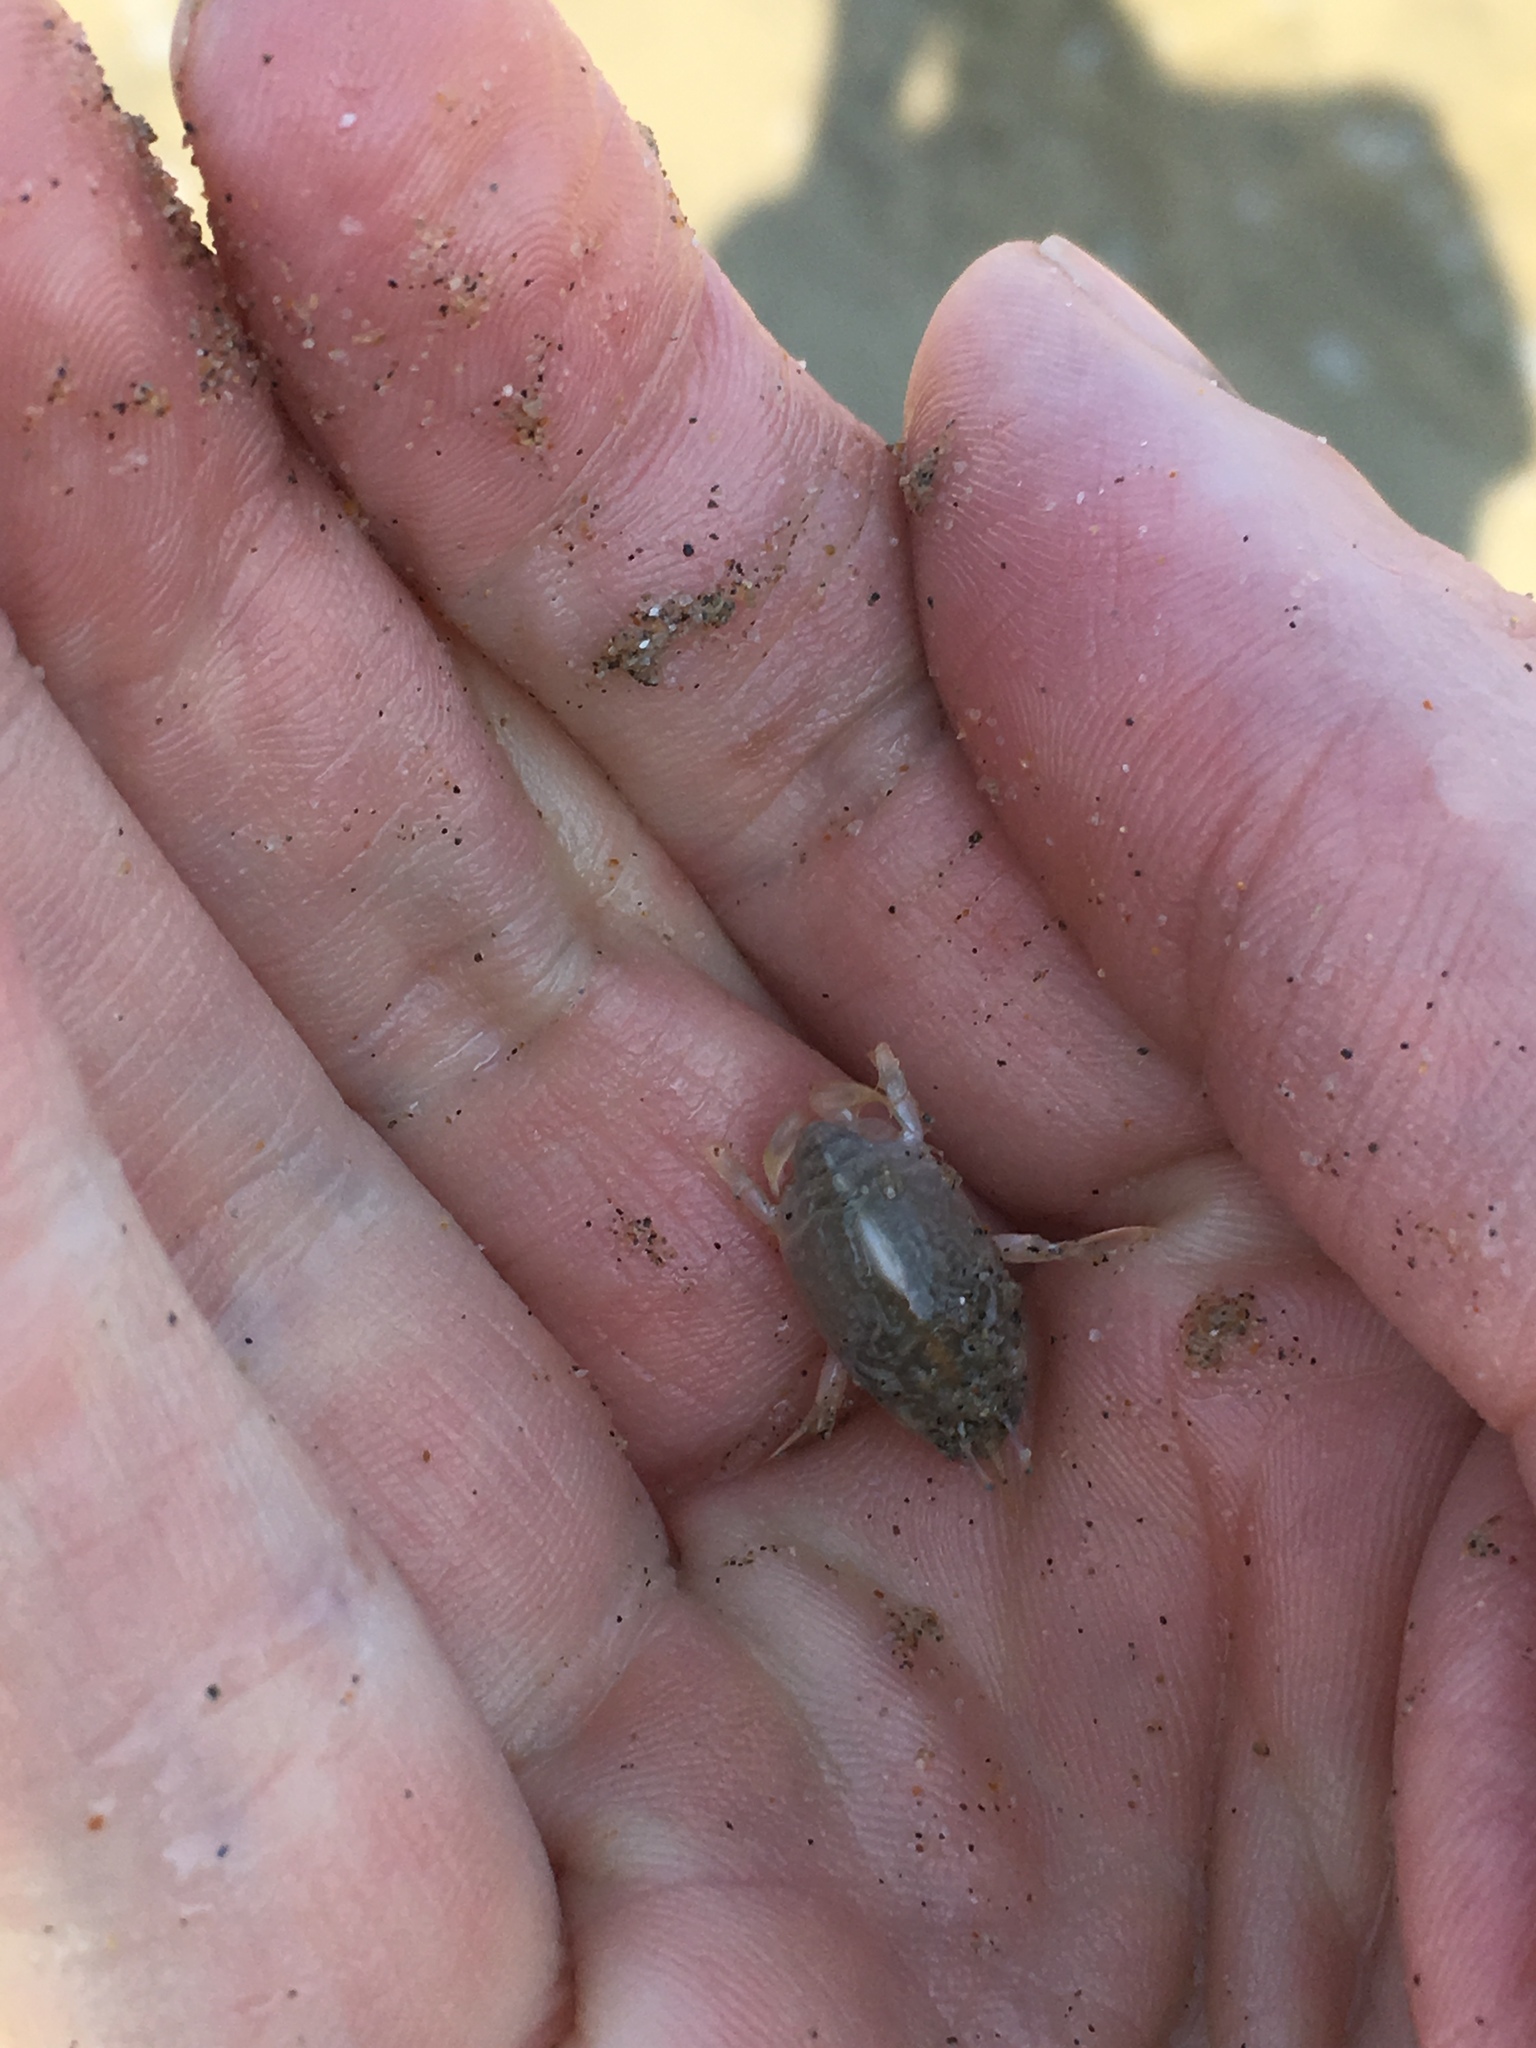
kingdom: Animalia
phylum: Arthropoda
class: Malacostraca
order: Decapoda
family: Hippidae
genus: Emerita
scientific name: Emerita analoga
